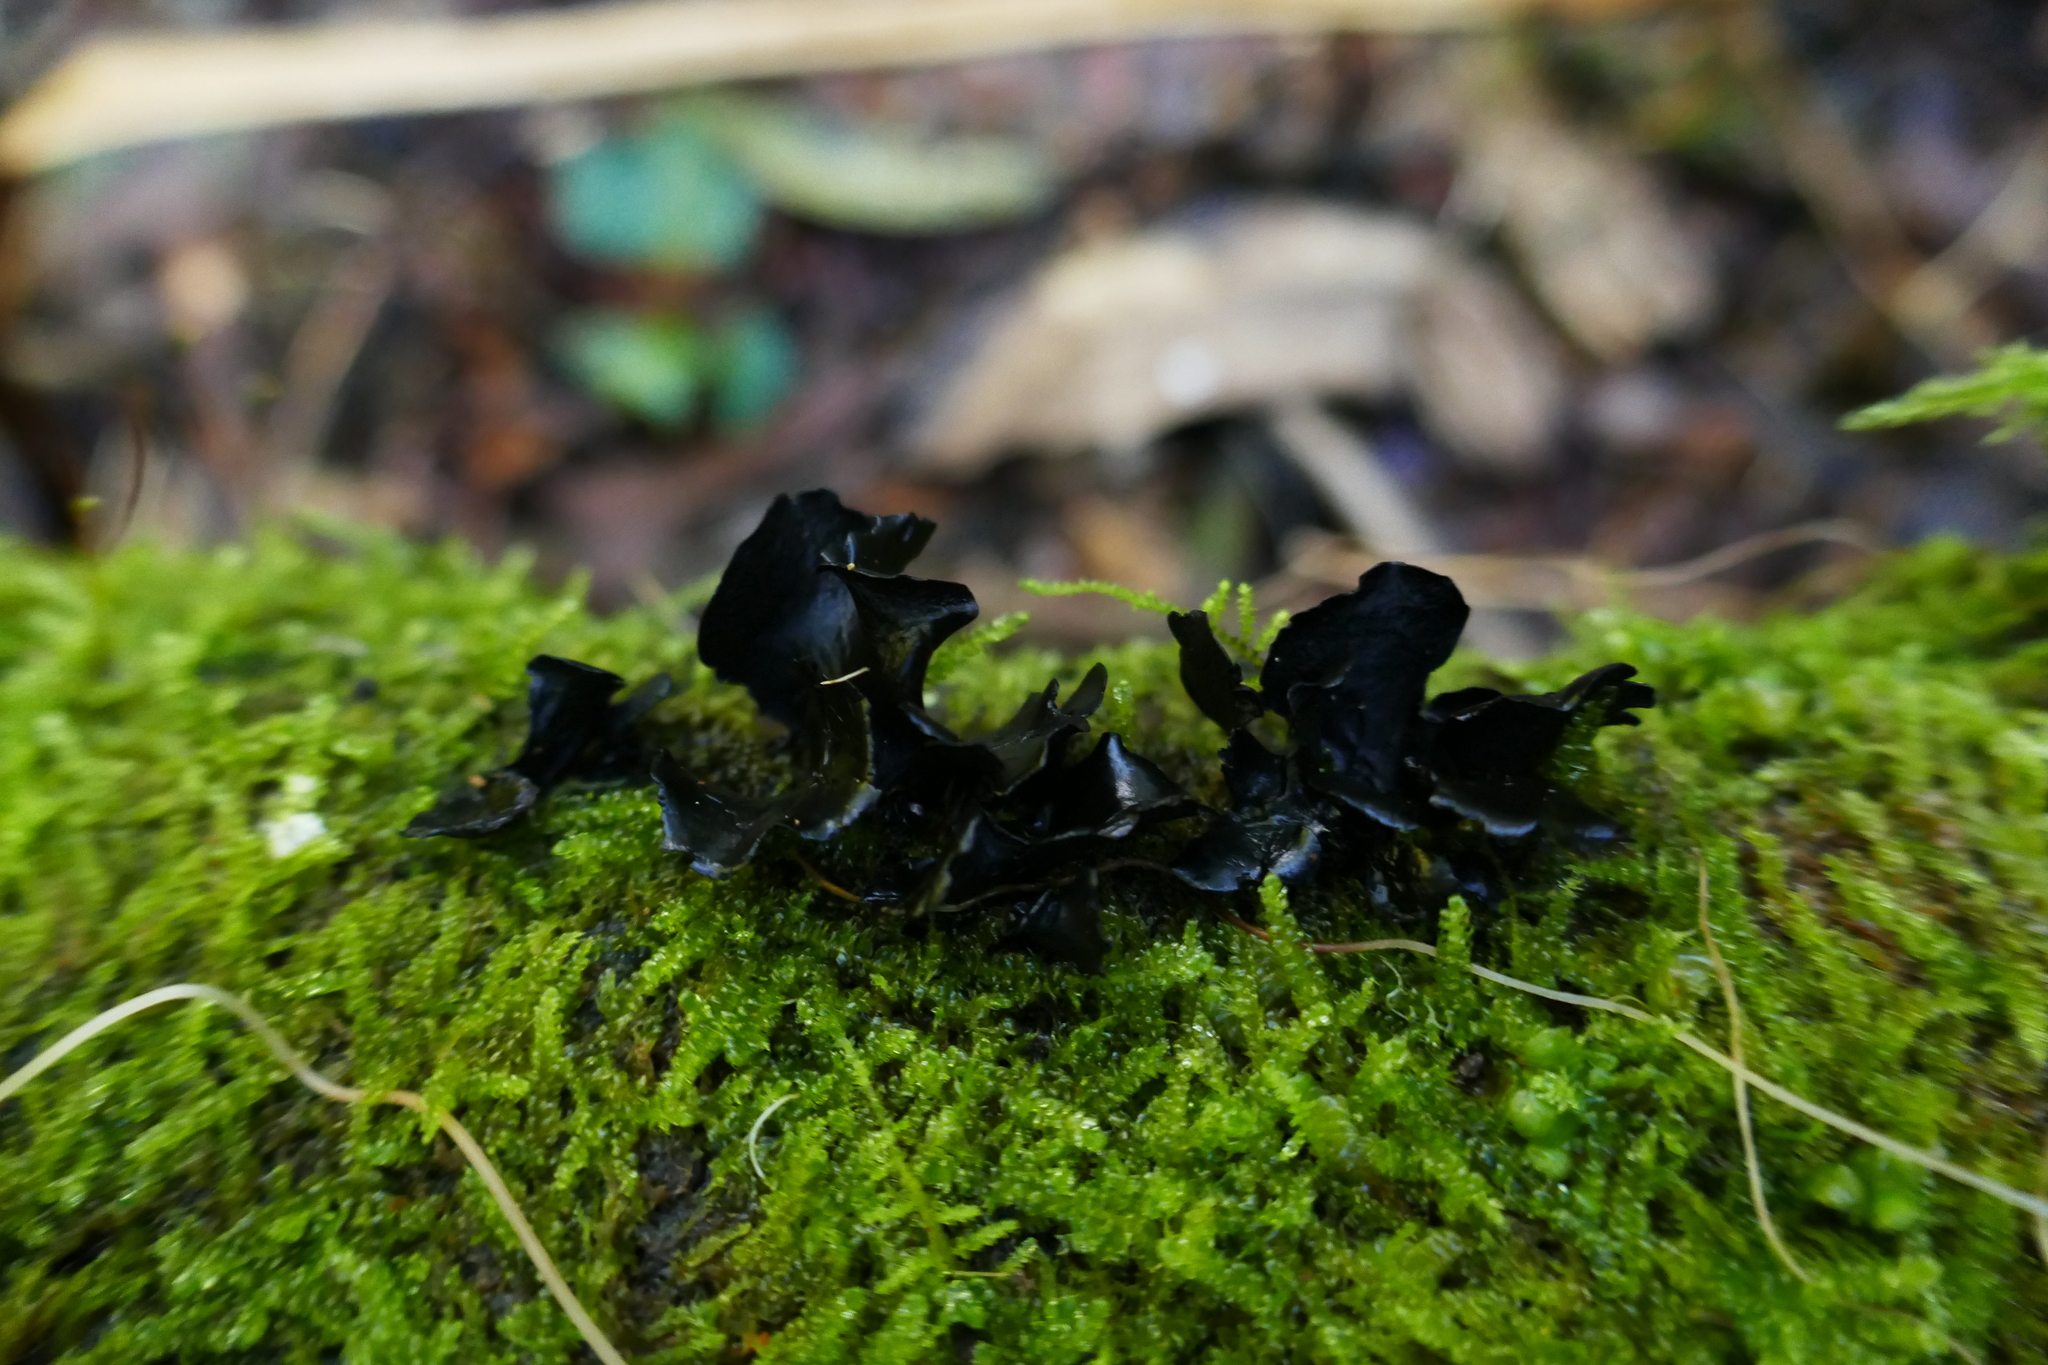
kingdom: Fungi
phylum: Ascomycota
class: Leotiomycetes
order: Helotiales
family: Cordieritidaceae
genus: Cordierites
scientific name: Cordierites frondosus
